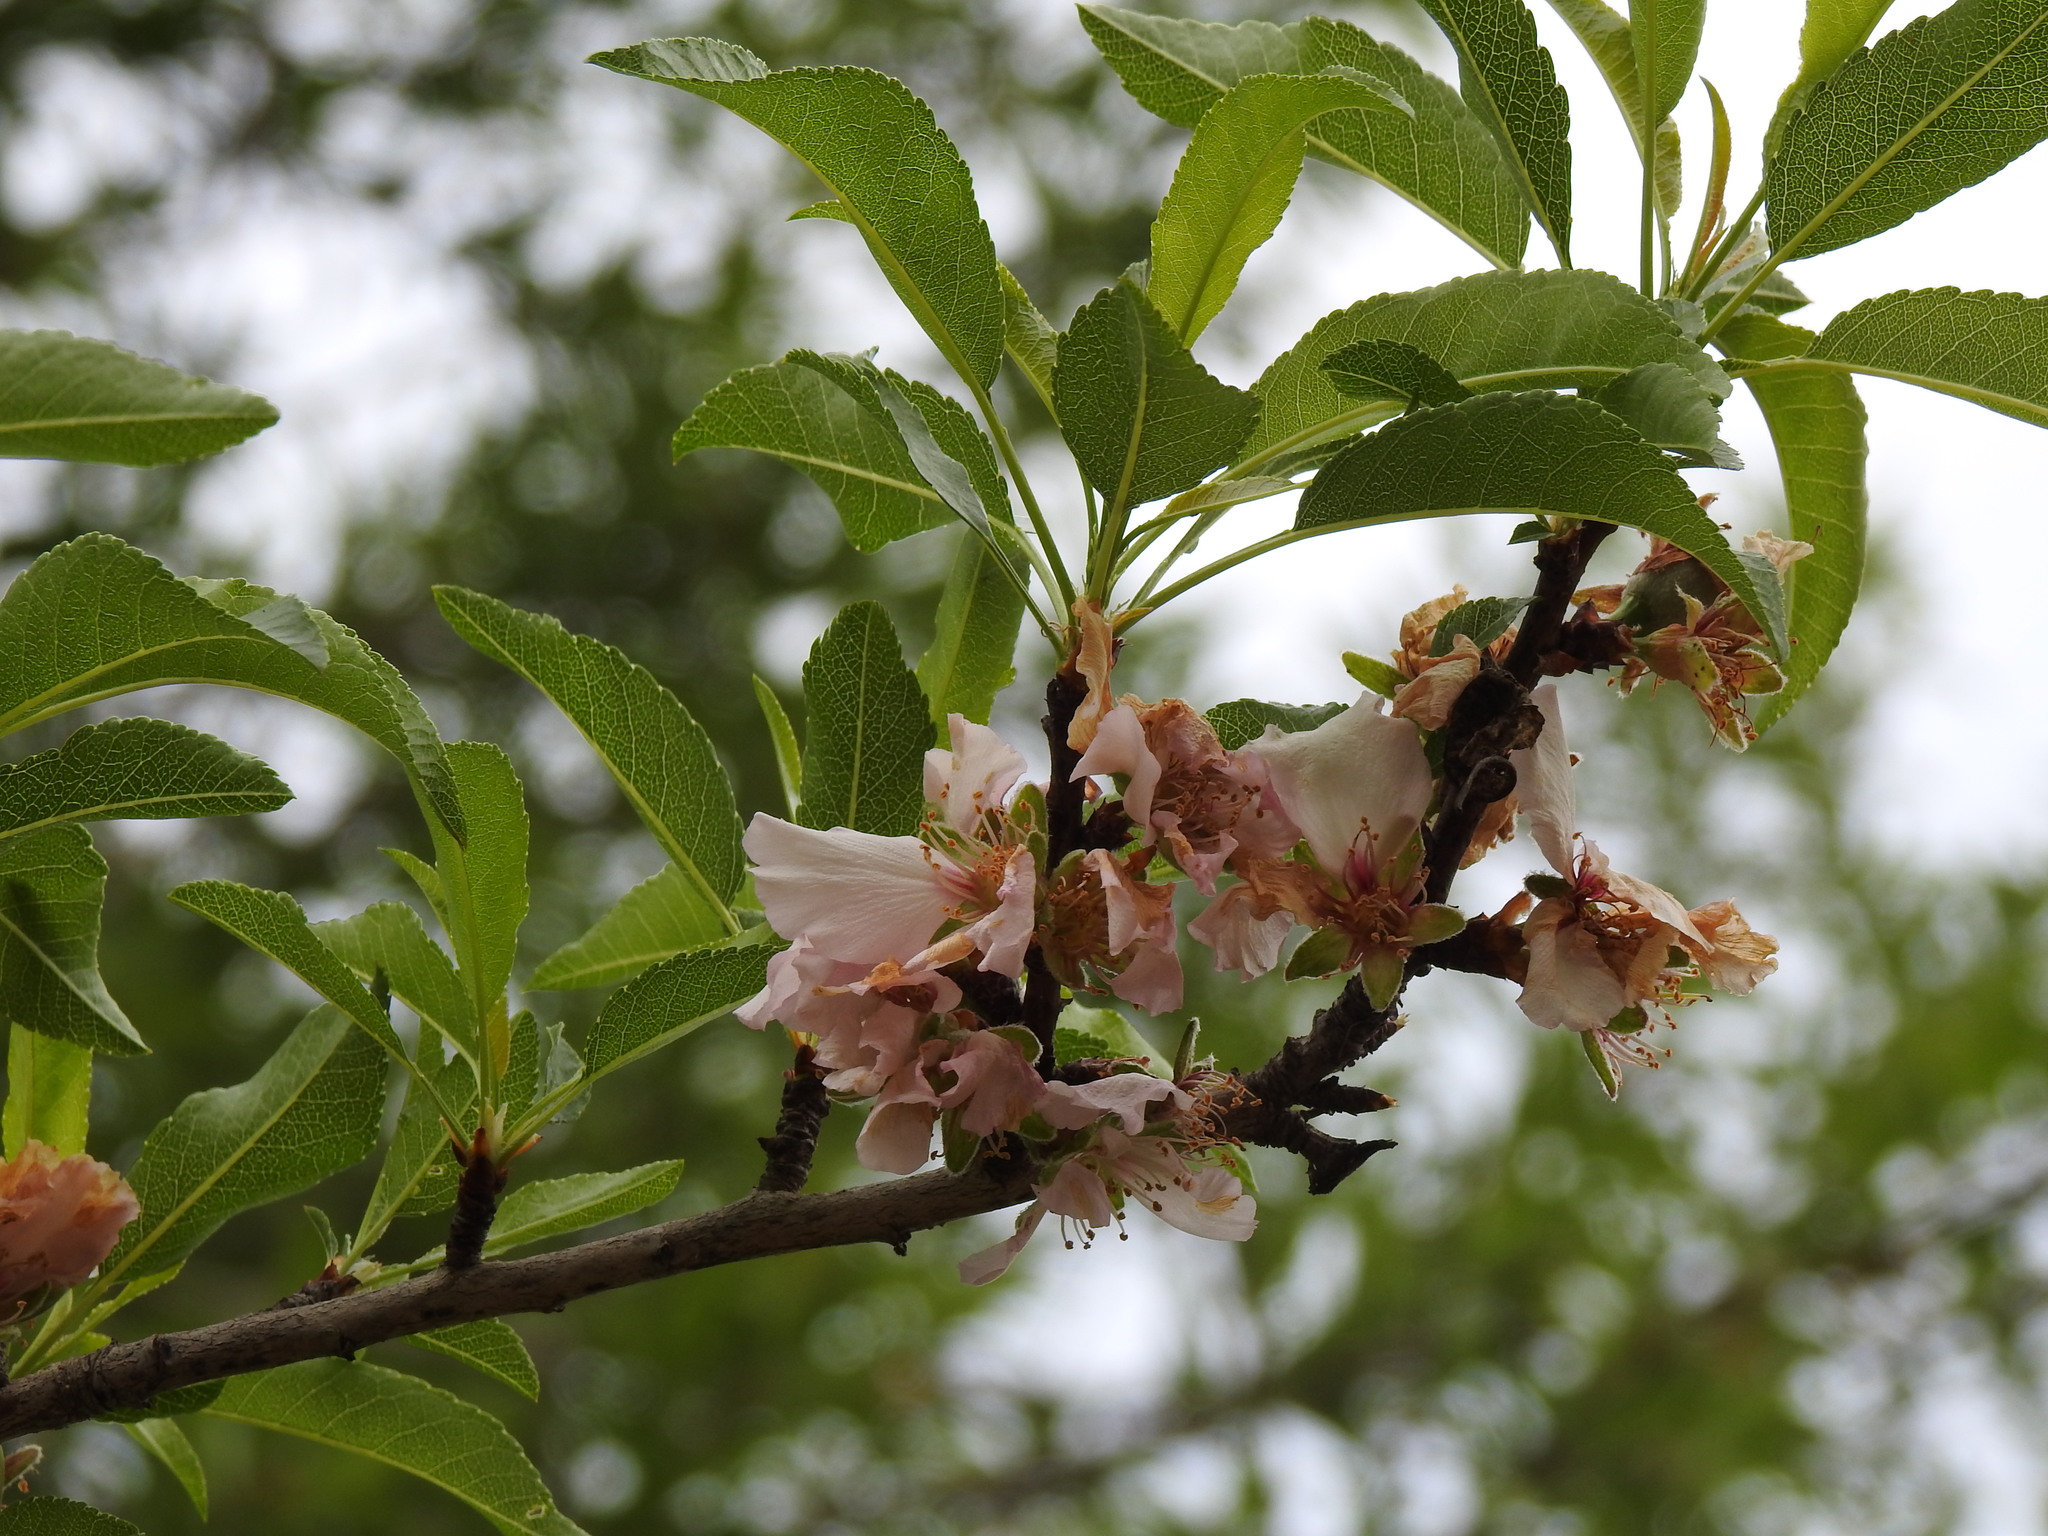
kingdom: Plantae
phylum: Tracheophyta
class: Magnoliopsida
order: Rosales
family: Rosaceae
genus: Prunus
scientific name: Prunus amygdalus
